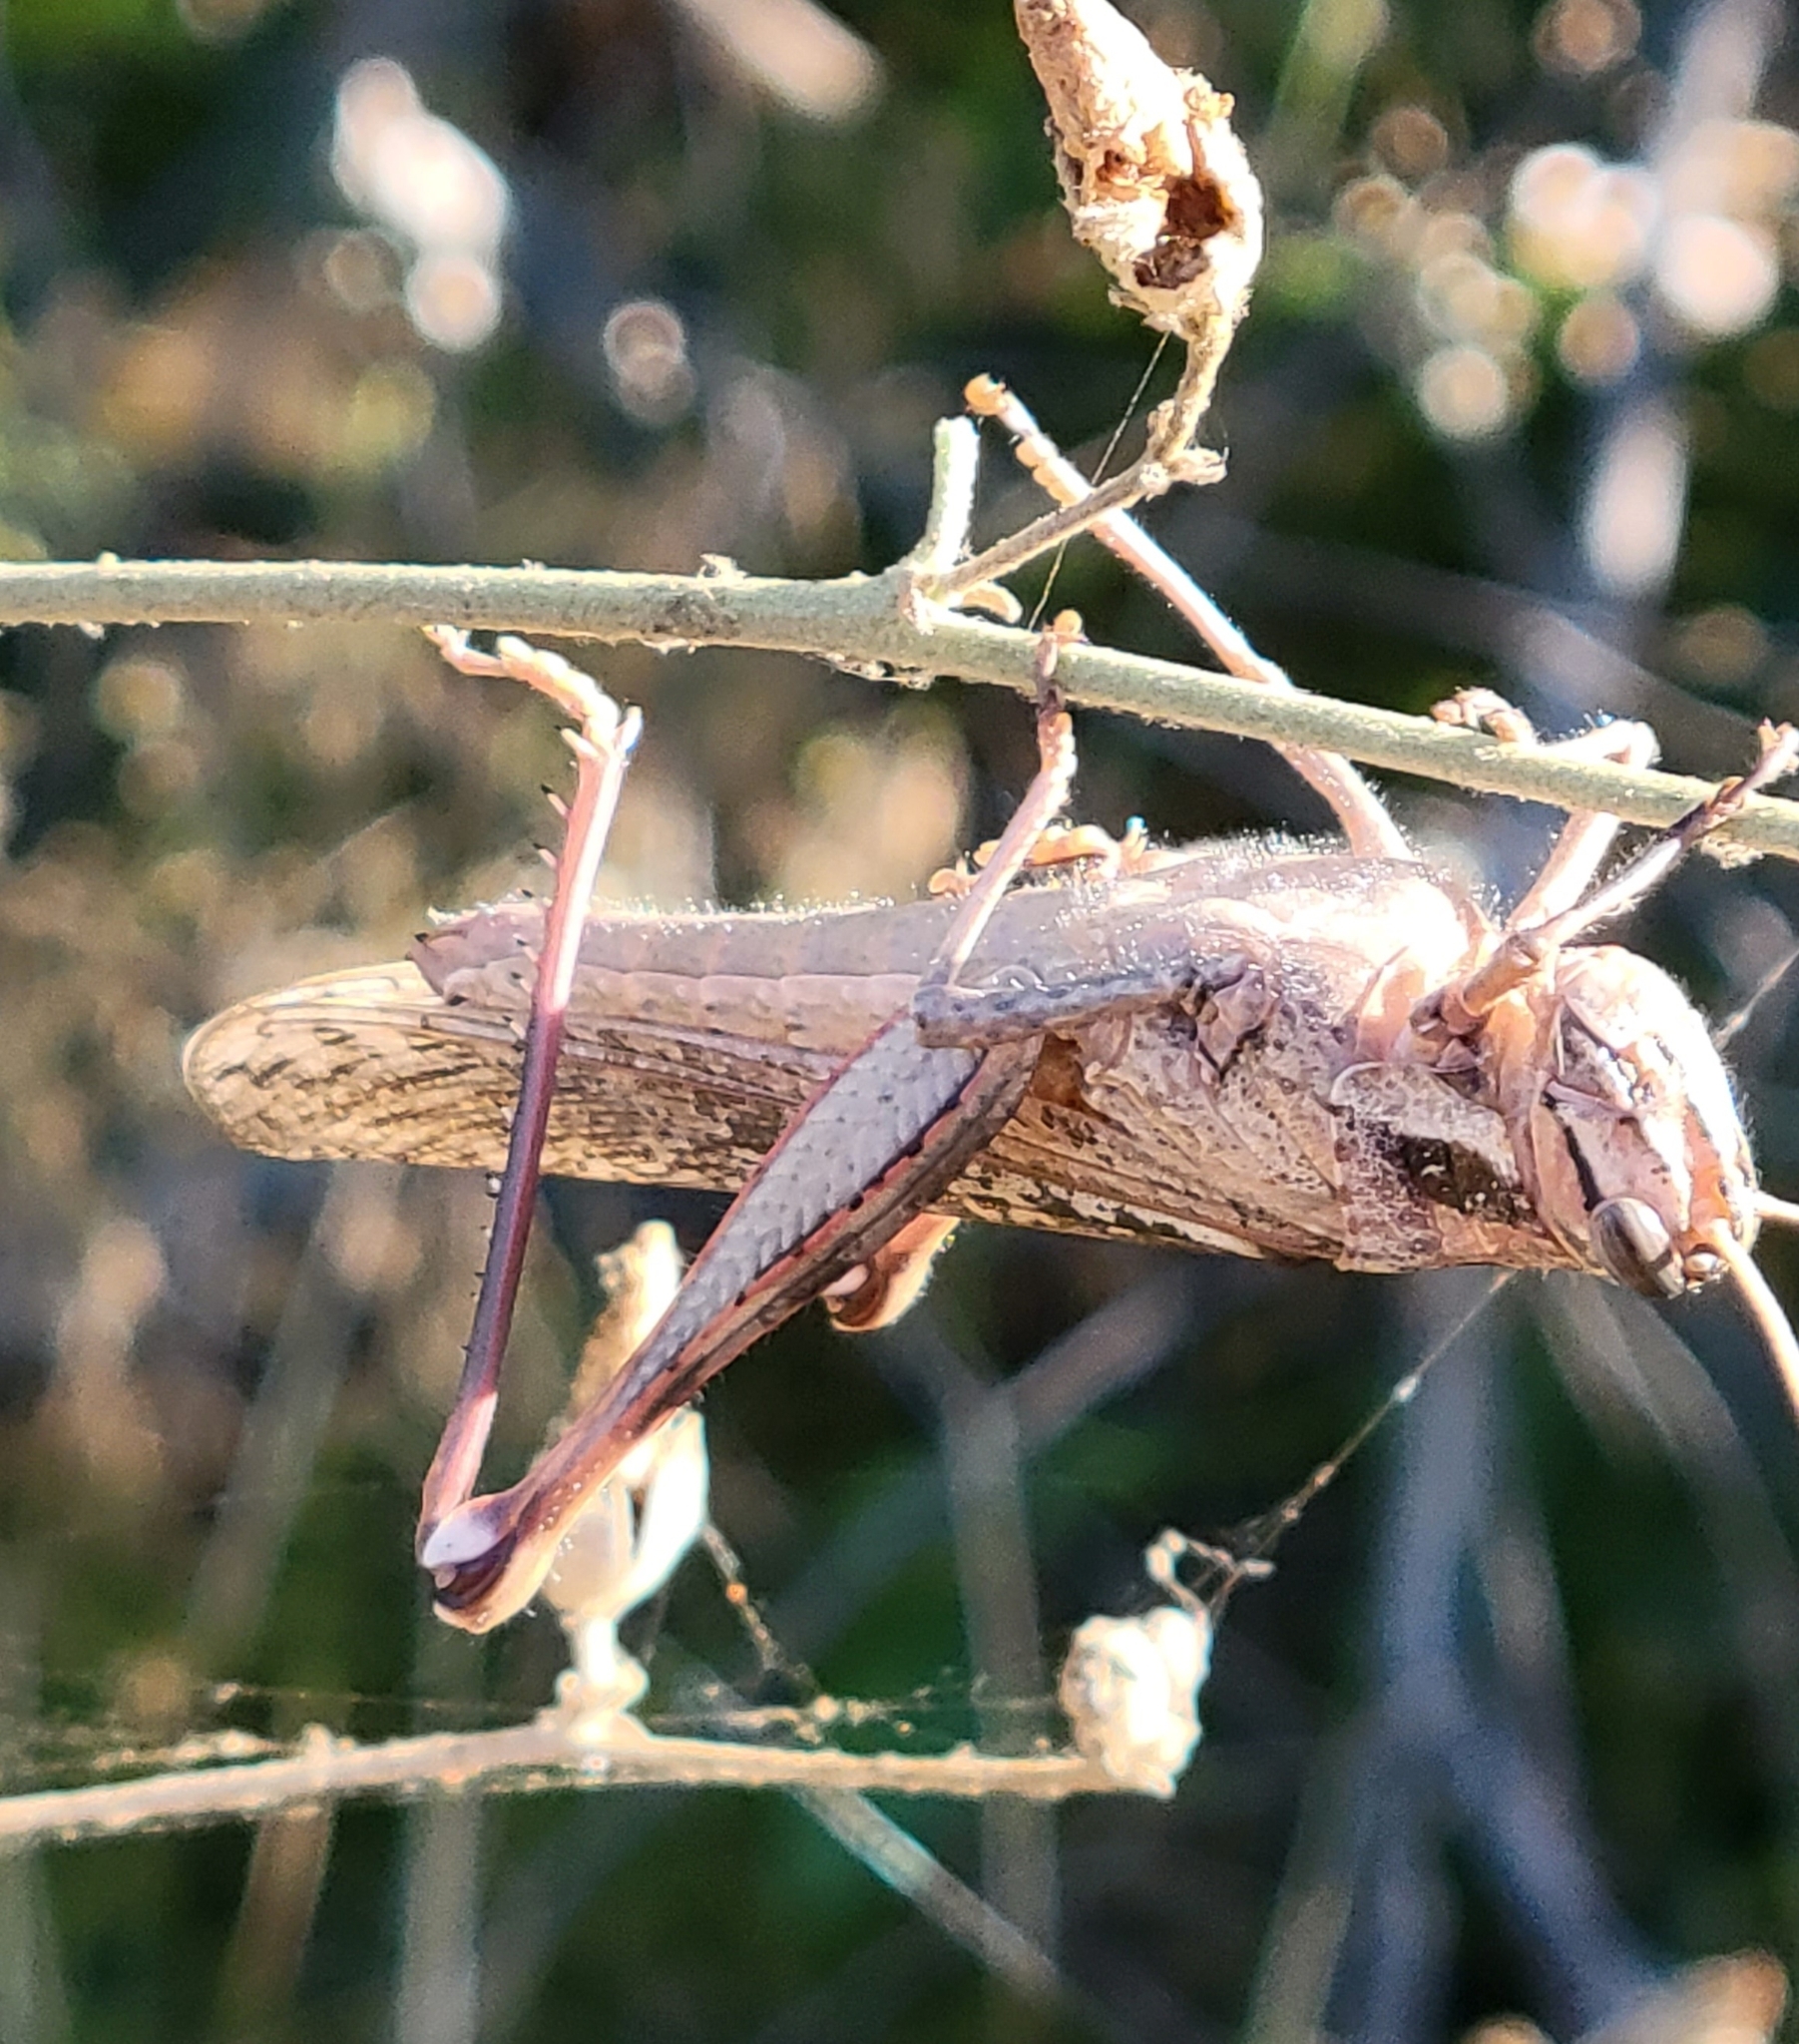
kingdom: Animalia
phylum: Arthropoda
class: Insecta
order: Orthoptera
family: Acrididae
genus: Schistocerca
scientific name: Schistocerca nitens
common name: Vagrant grasshopper
